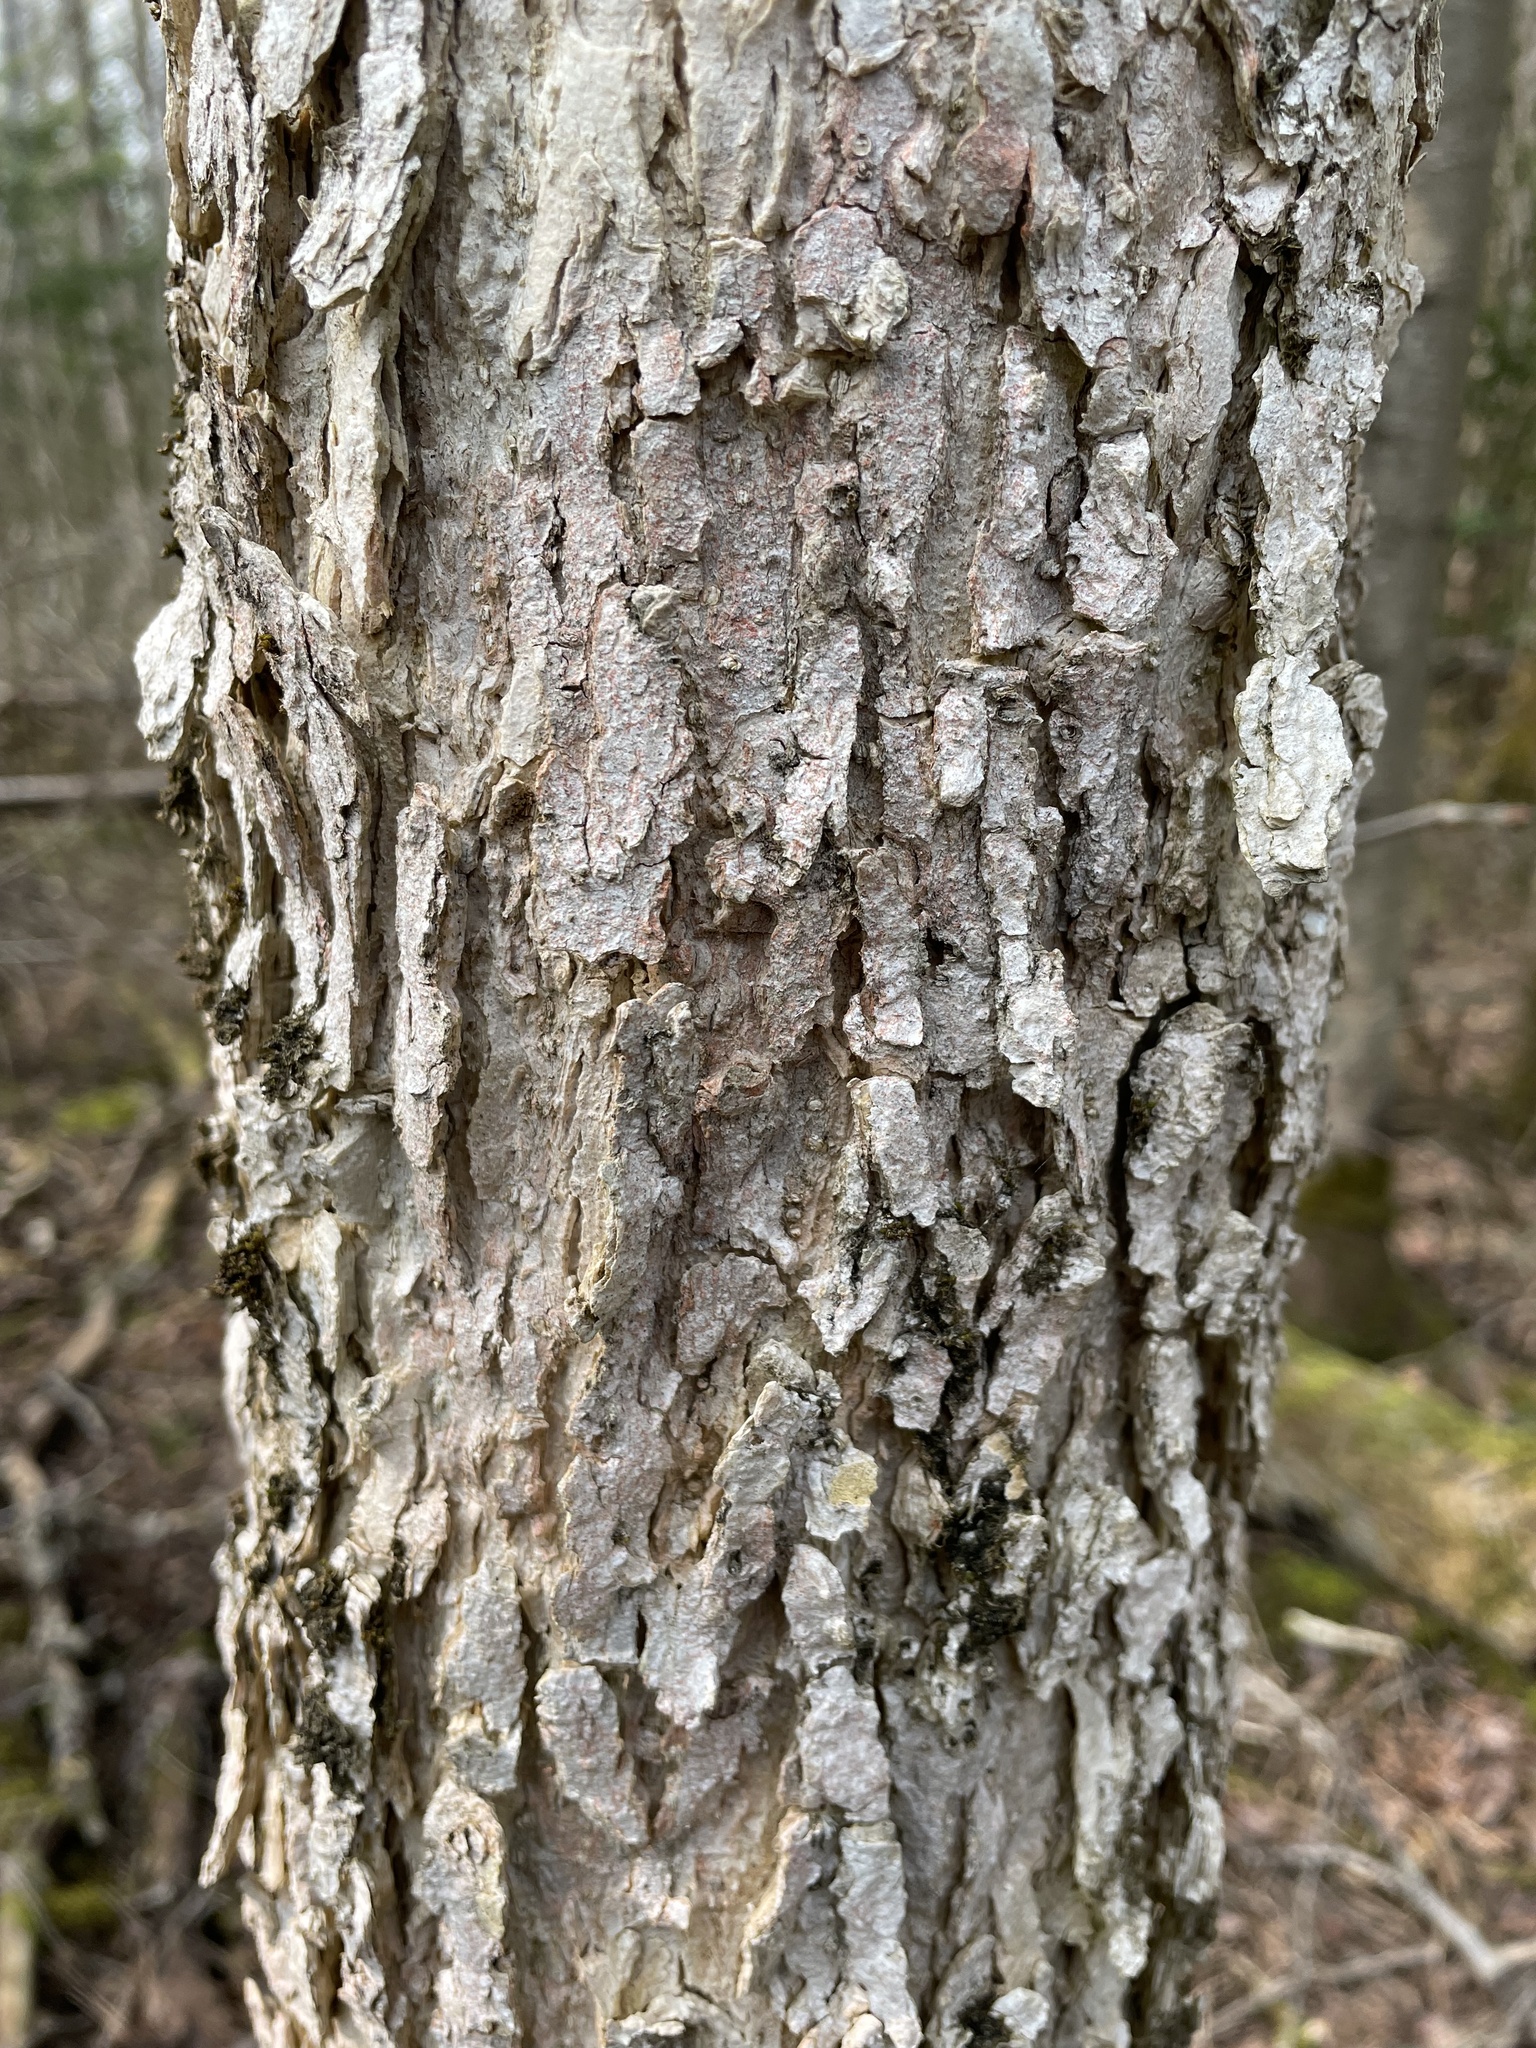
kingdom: Plantae
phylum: Tracheophyta
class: Magnoliopsida
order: Lamiales
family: Oleaceae
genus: Fraxinus
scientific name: Fraxinus nigra
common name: Black ash
